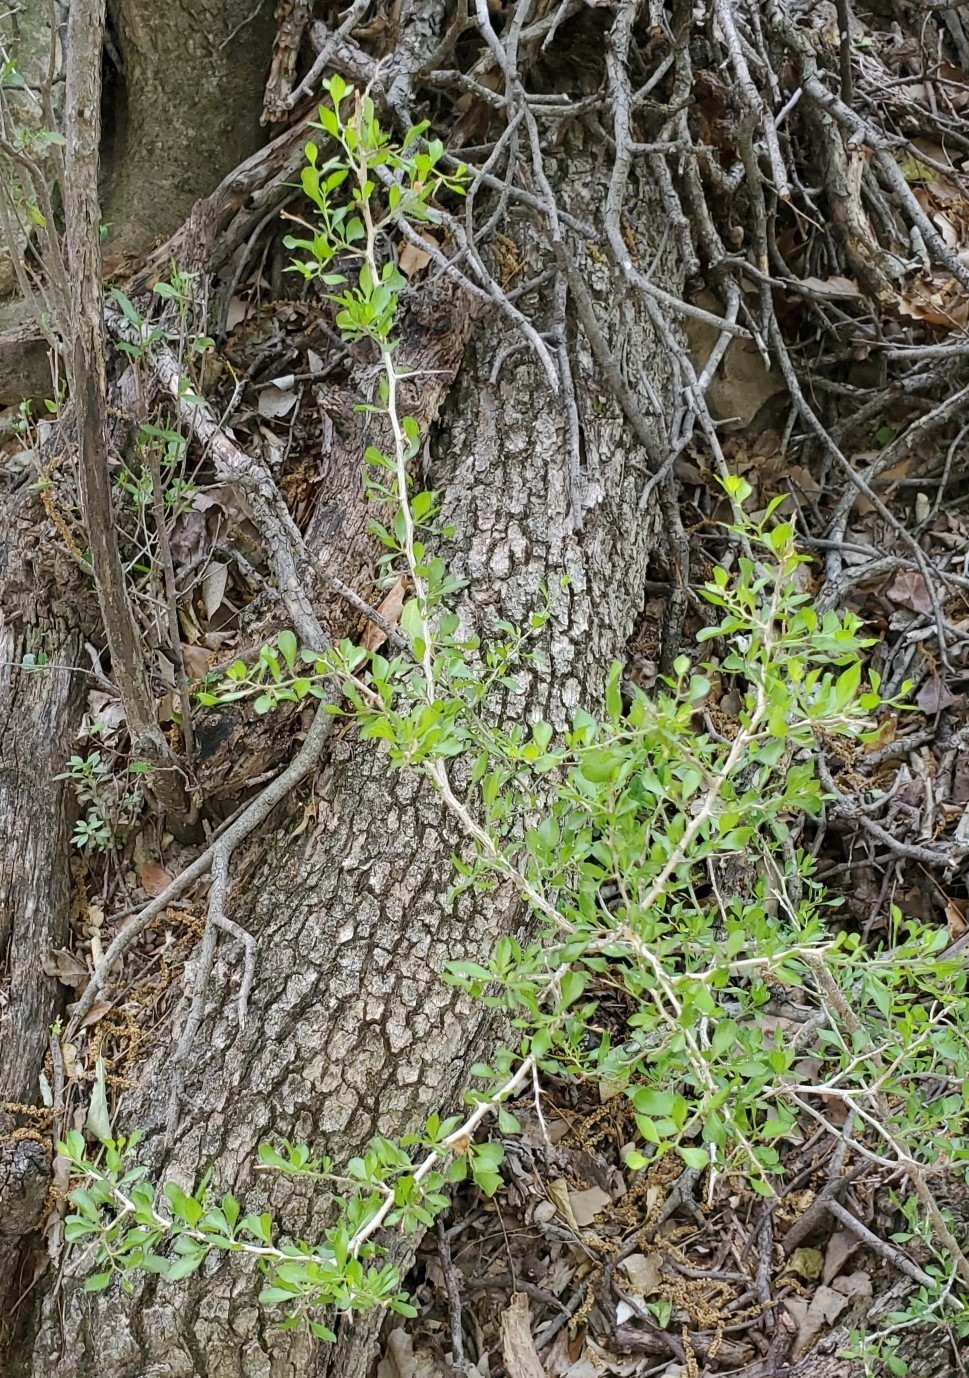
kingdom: Plantae
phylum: Tracheophyta
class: Magnoliopsida
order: Rosales
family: Rhamnaceae
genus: Condalia
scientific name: Condalia hookeri
